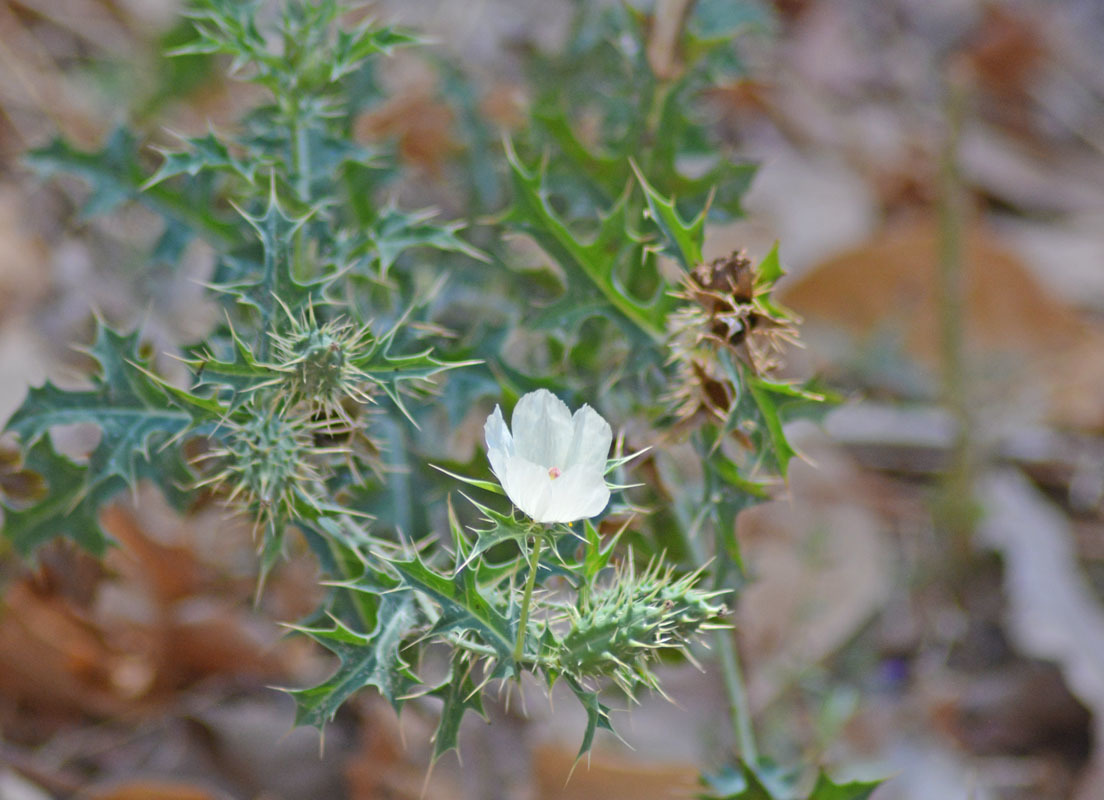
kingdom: Plantae
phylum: Tracheophyta
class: Magnoliopsida
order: Ranunculales
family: Papaveraceae
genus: Argemone
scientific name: Argemone ochroleuca
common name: White-flower mexican-poppy
